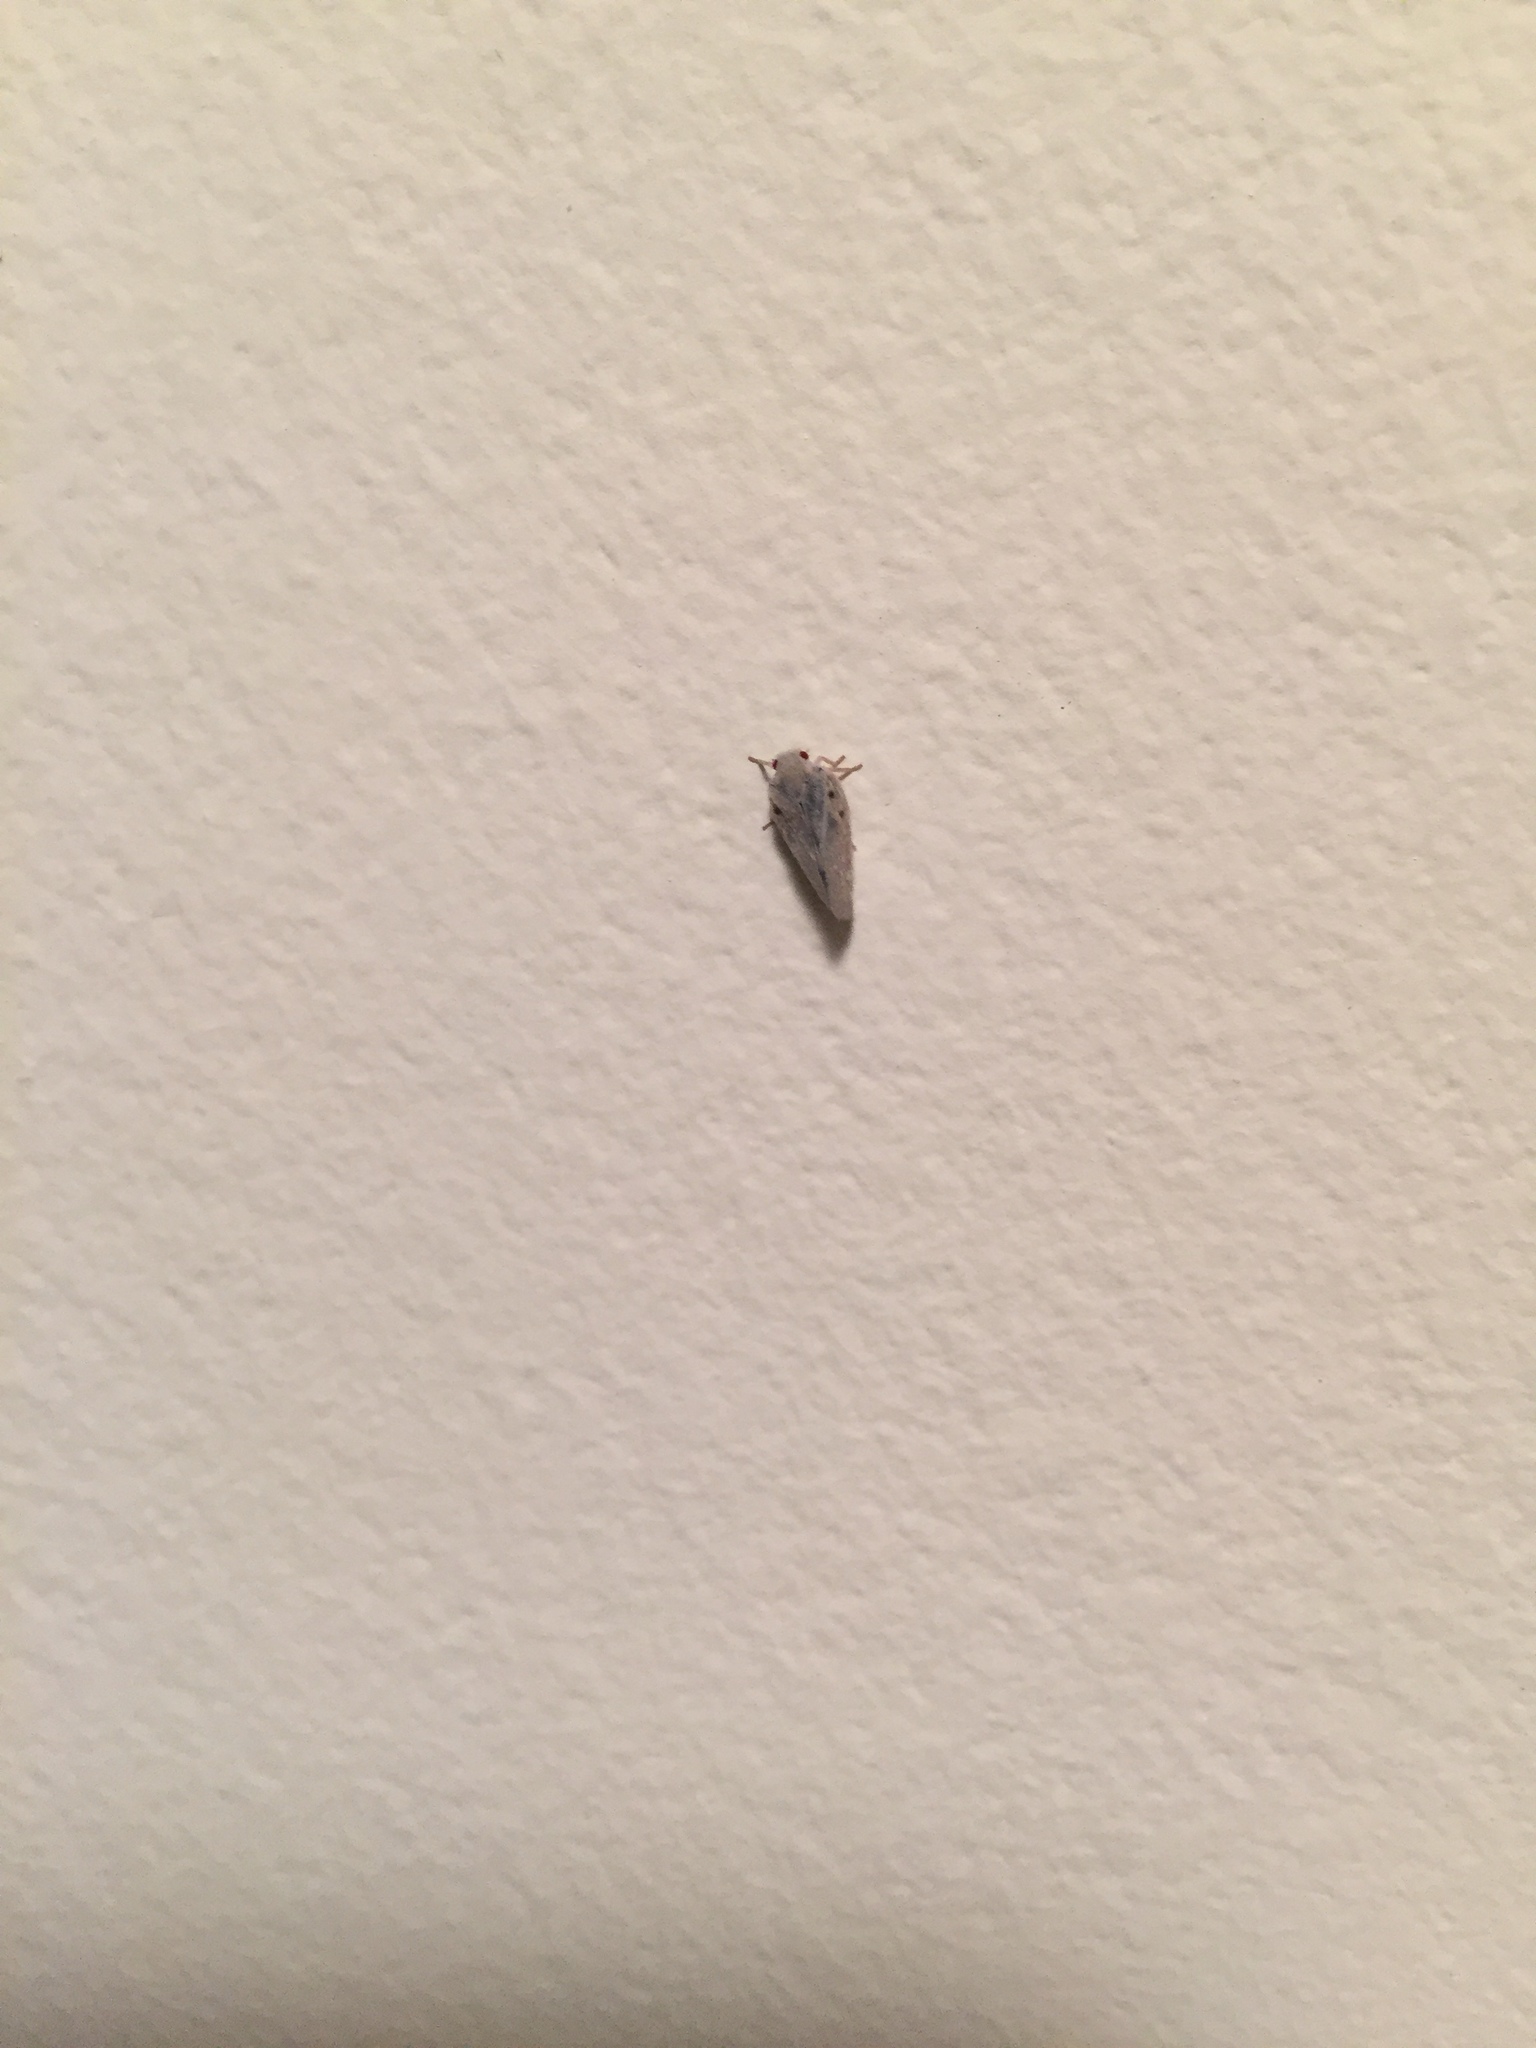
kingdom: Animalia
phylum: Arthropoda
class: Insecta
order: Hemiptera
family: Flatidae
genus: Metcalfa
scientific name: Metcalfa pruinosa
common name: Citrus flatid planthopper
